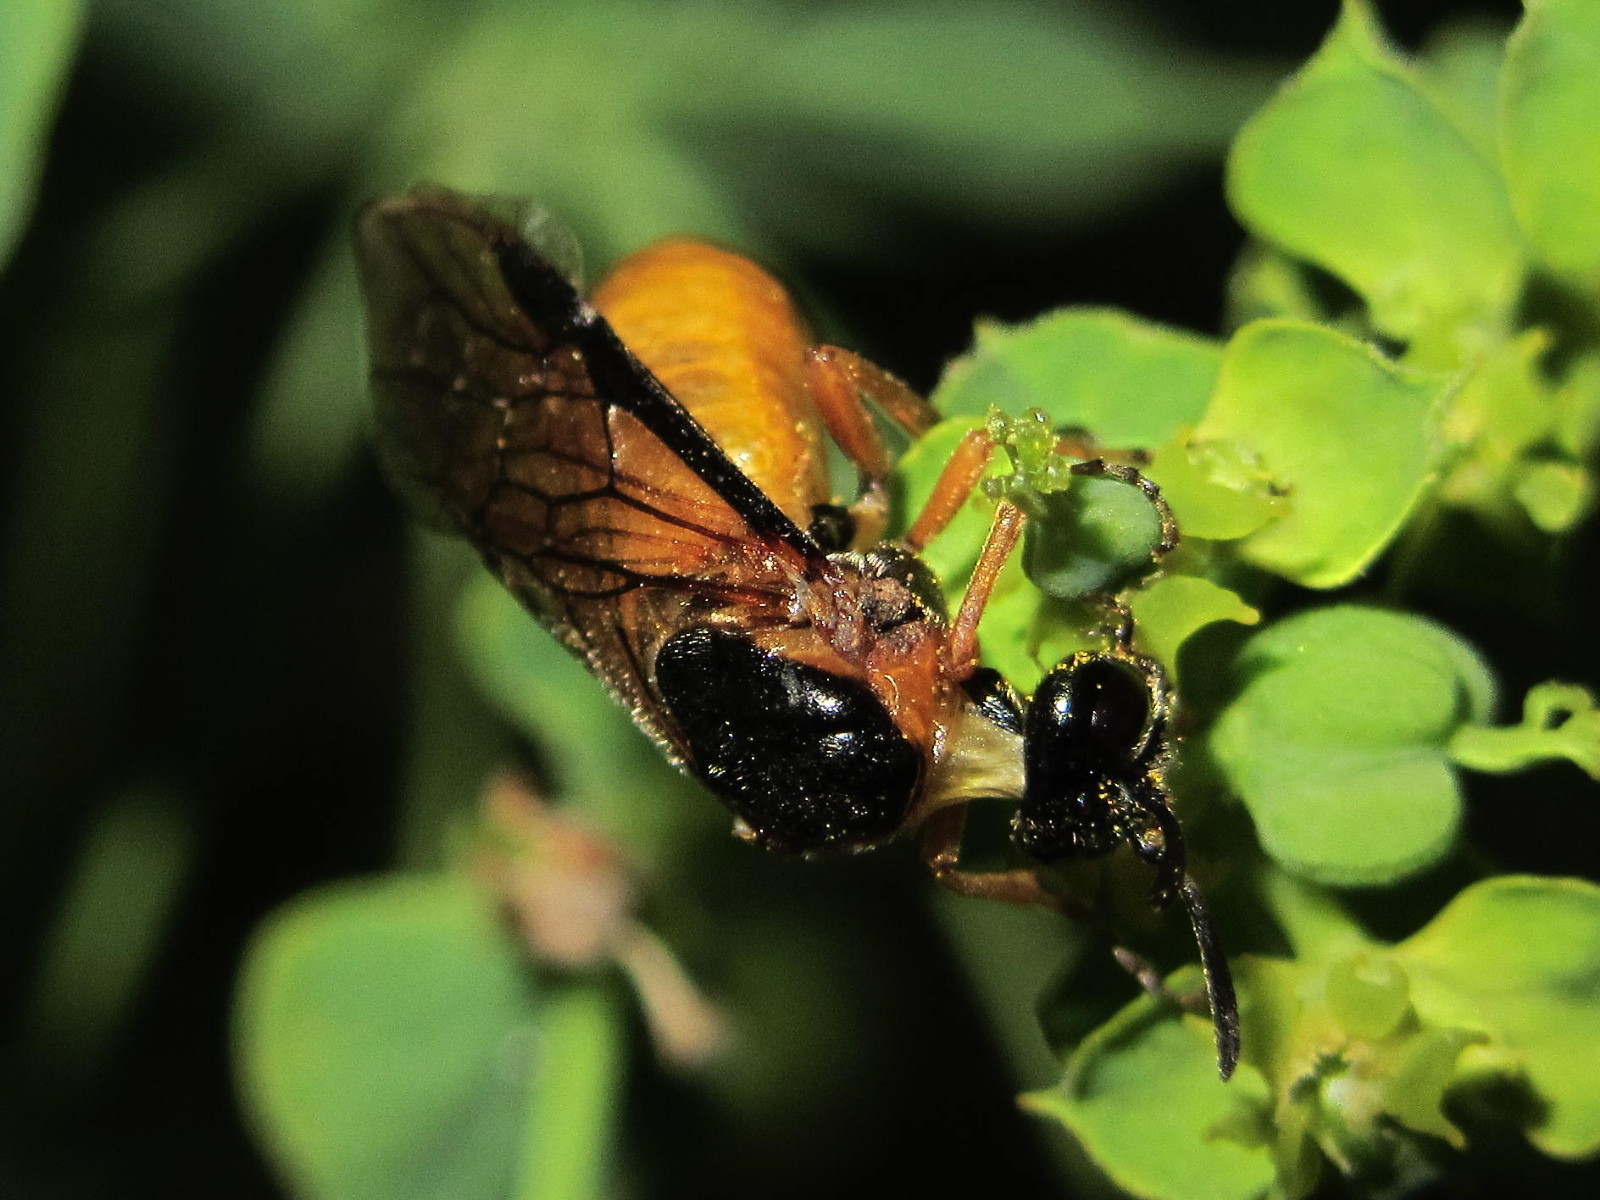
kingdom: Animalia
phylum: Arthropoda
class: Insecta
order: Hymenoptera
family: Argidae
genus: Arge
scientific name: Arge ochropus
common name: Argid sawfly
